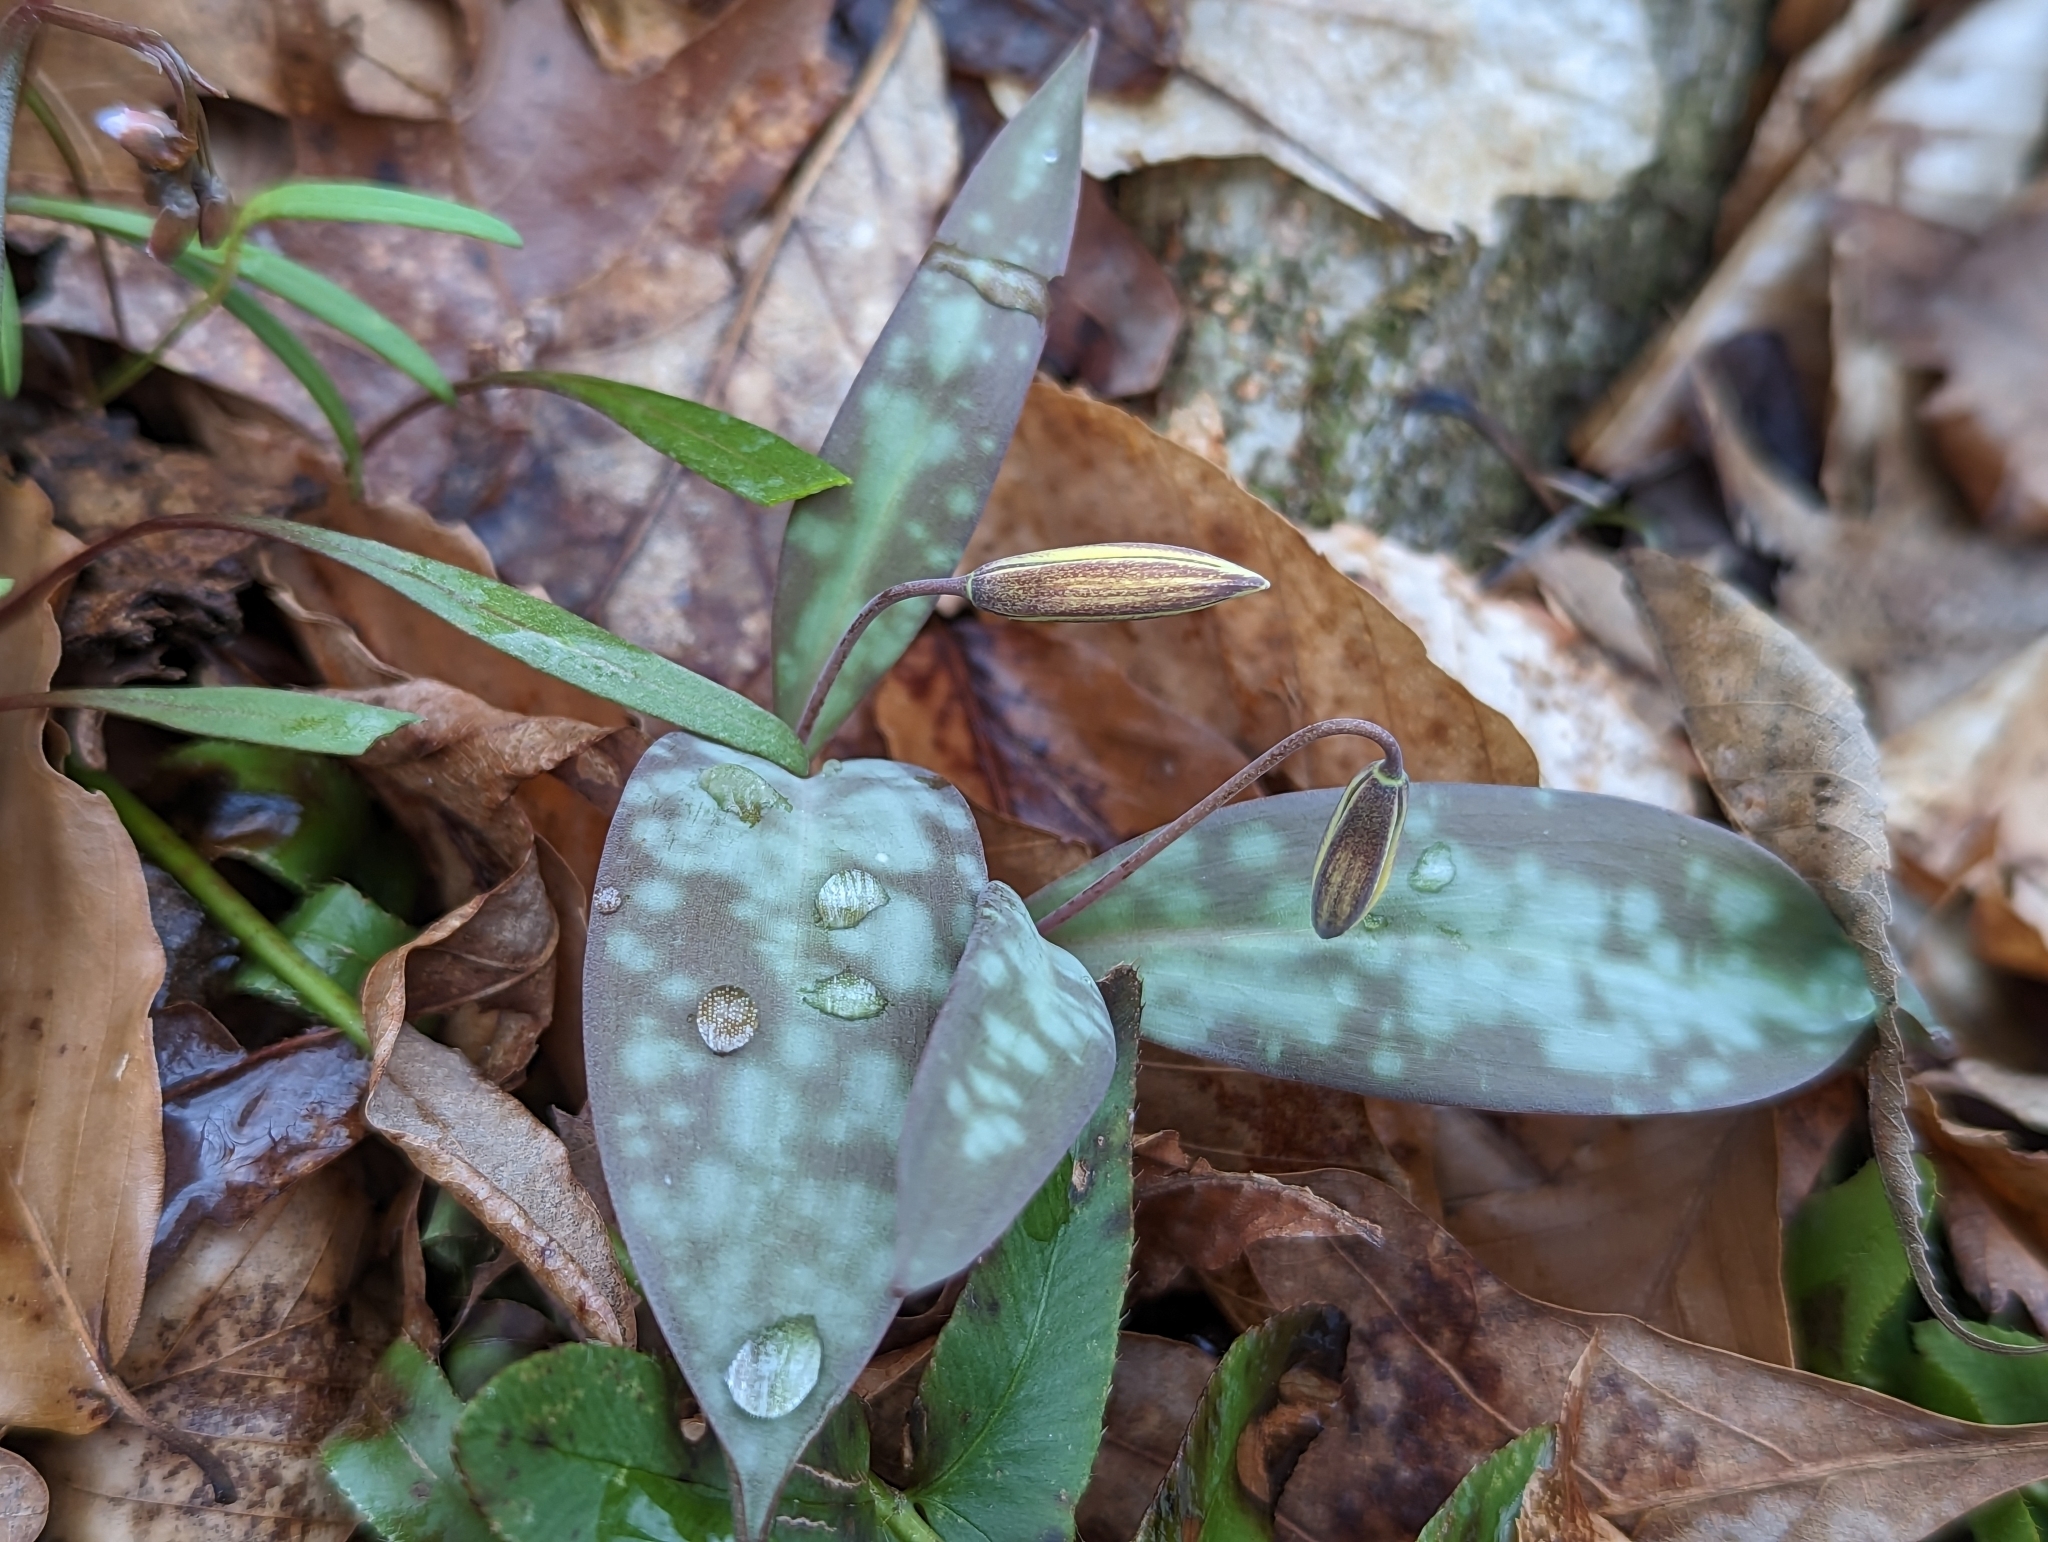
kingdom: Plantae
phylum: Tracheophyta
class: Liliopsida
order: Liliales
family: Liliaceae
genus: Erythronium
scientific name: Erythronium rostratum
